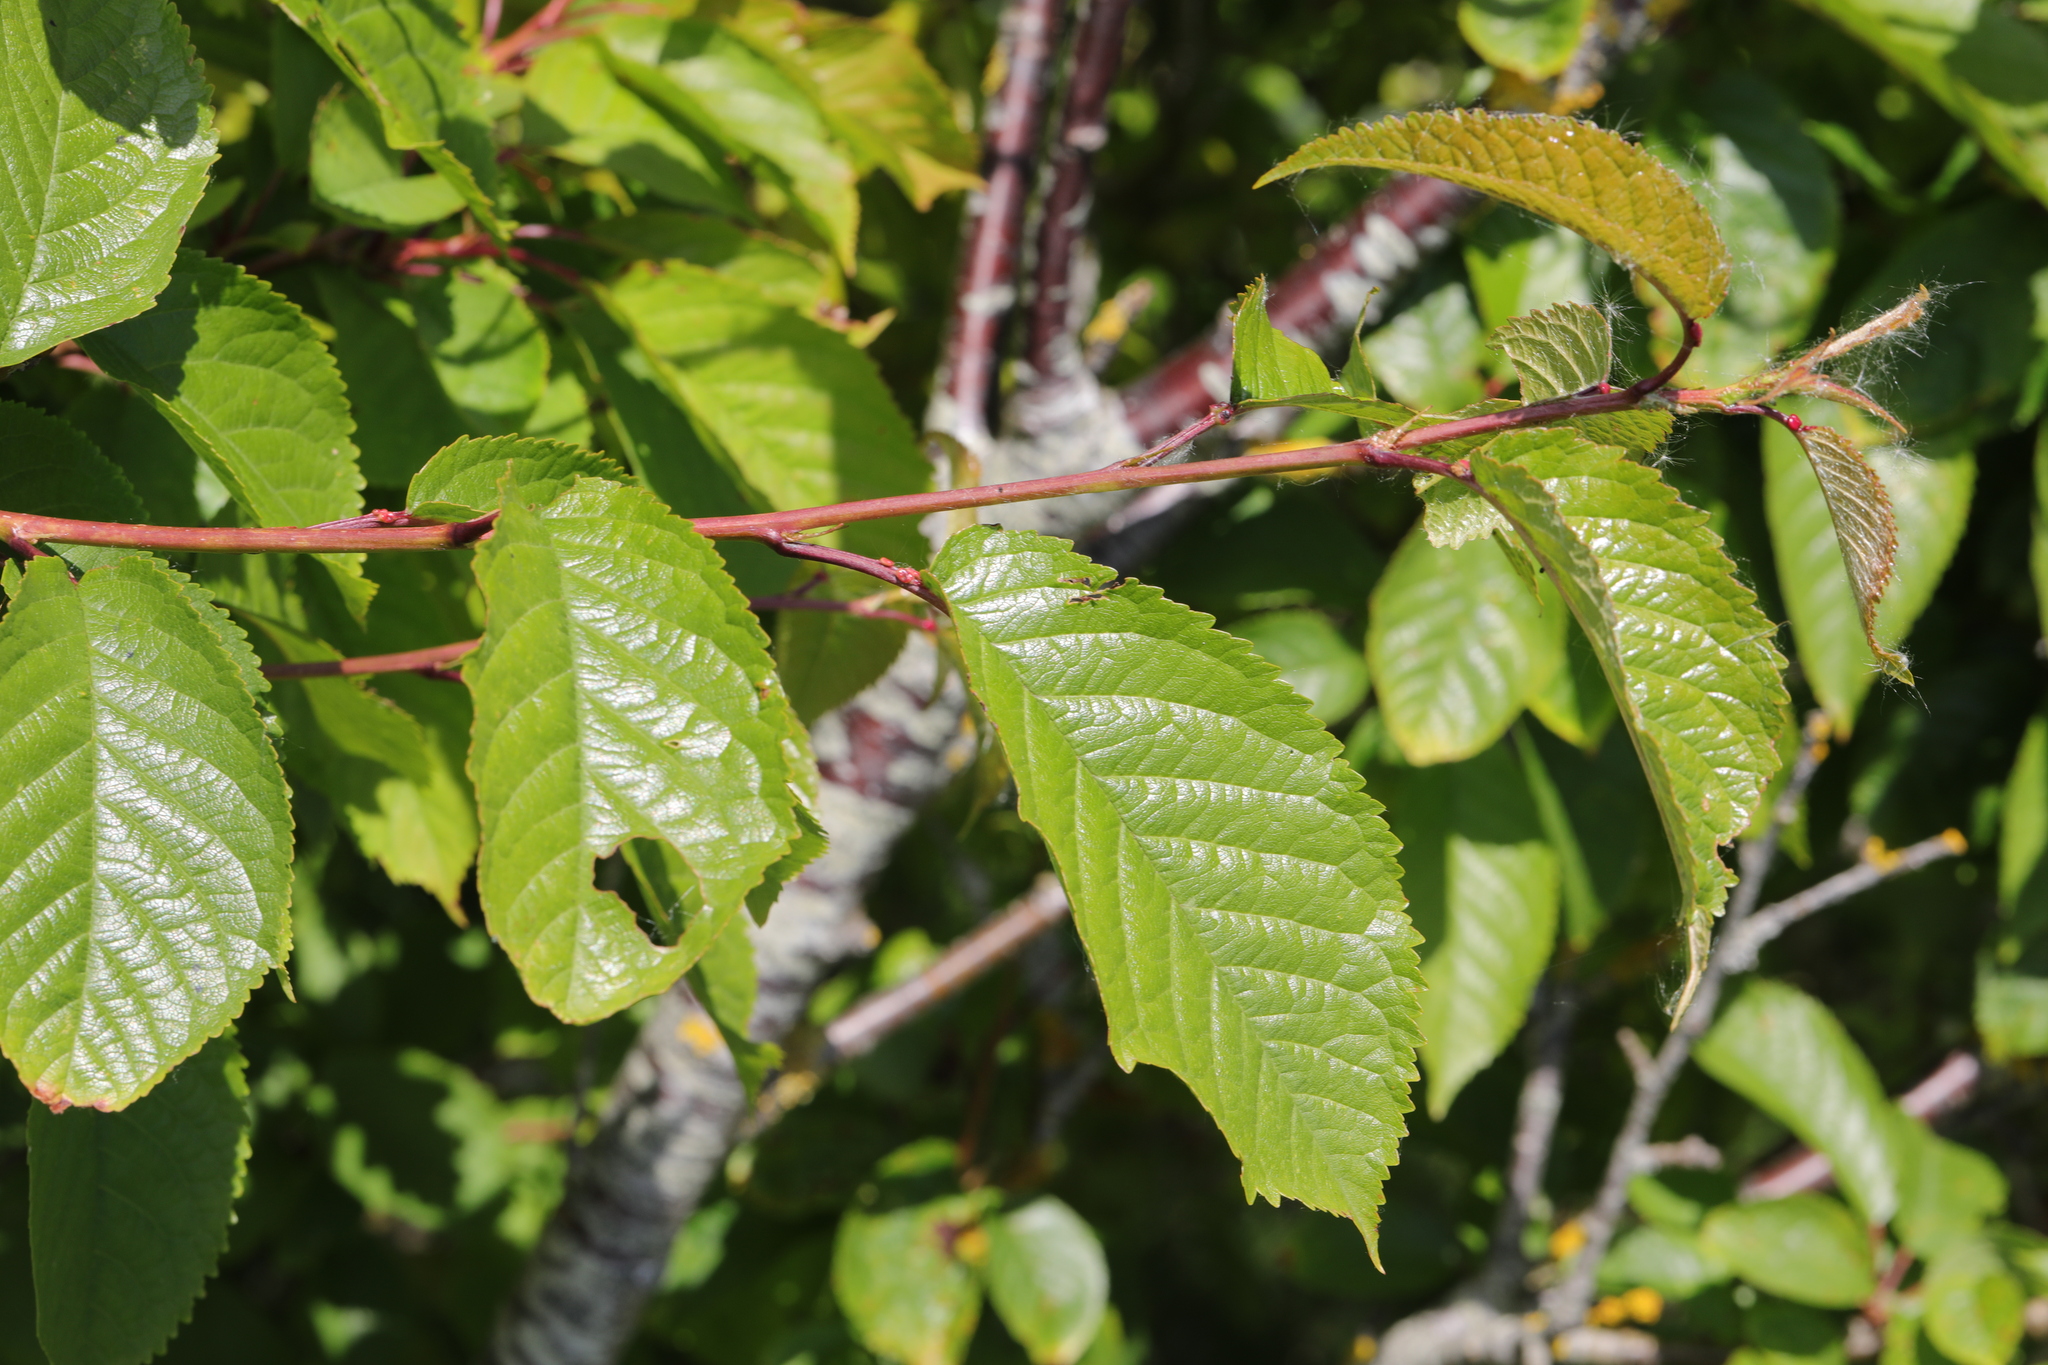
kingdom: Plantae
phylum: Tracheophyta
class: Magnoliopsida
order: Rosales
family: Rosaceae
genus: Prunus
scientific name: Prunus avium
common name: Sweet cherry
